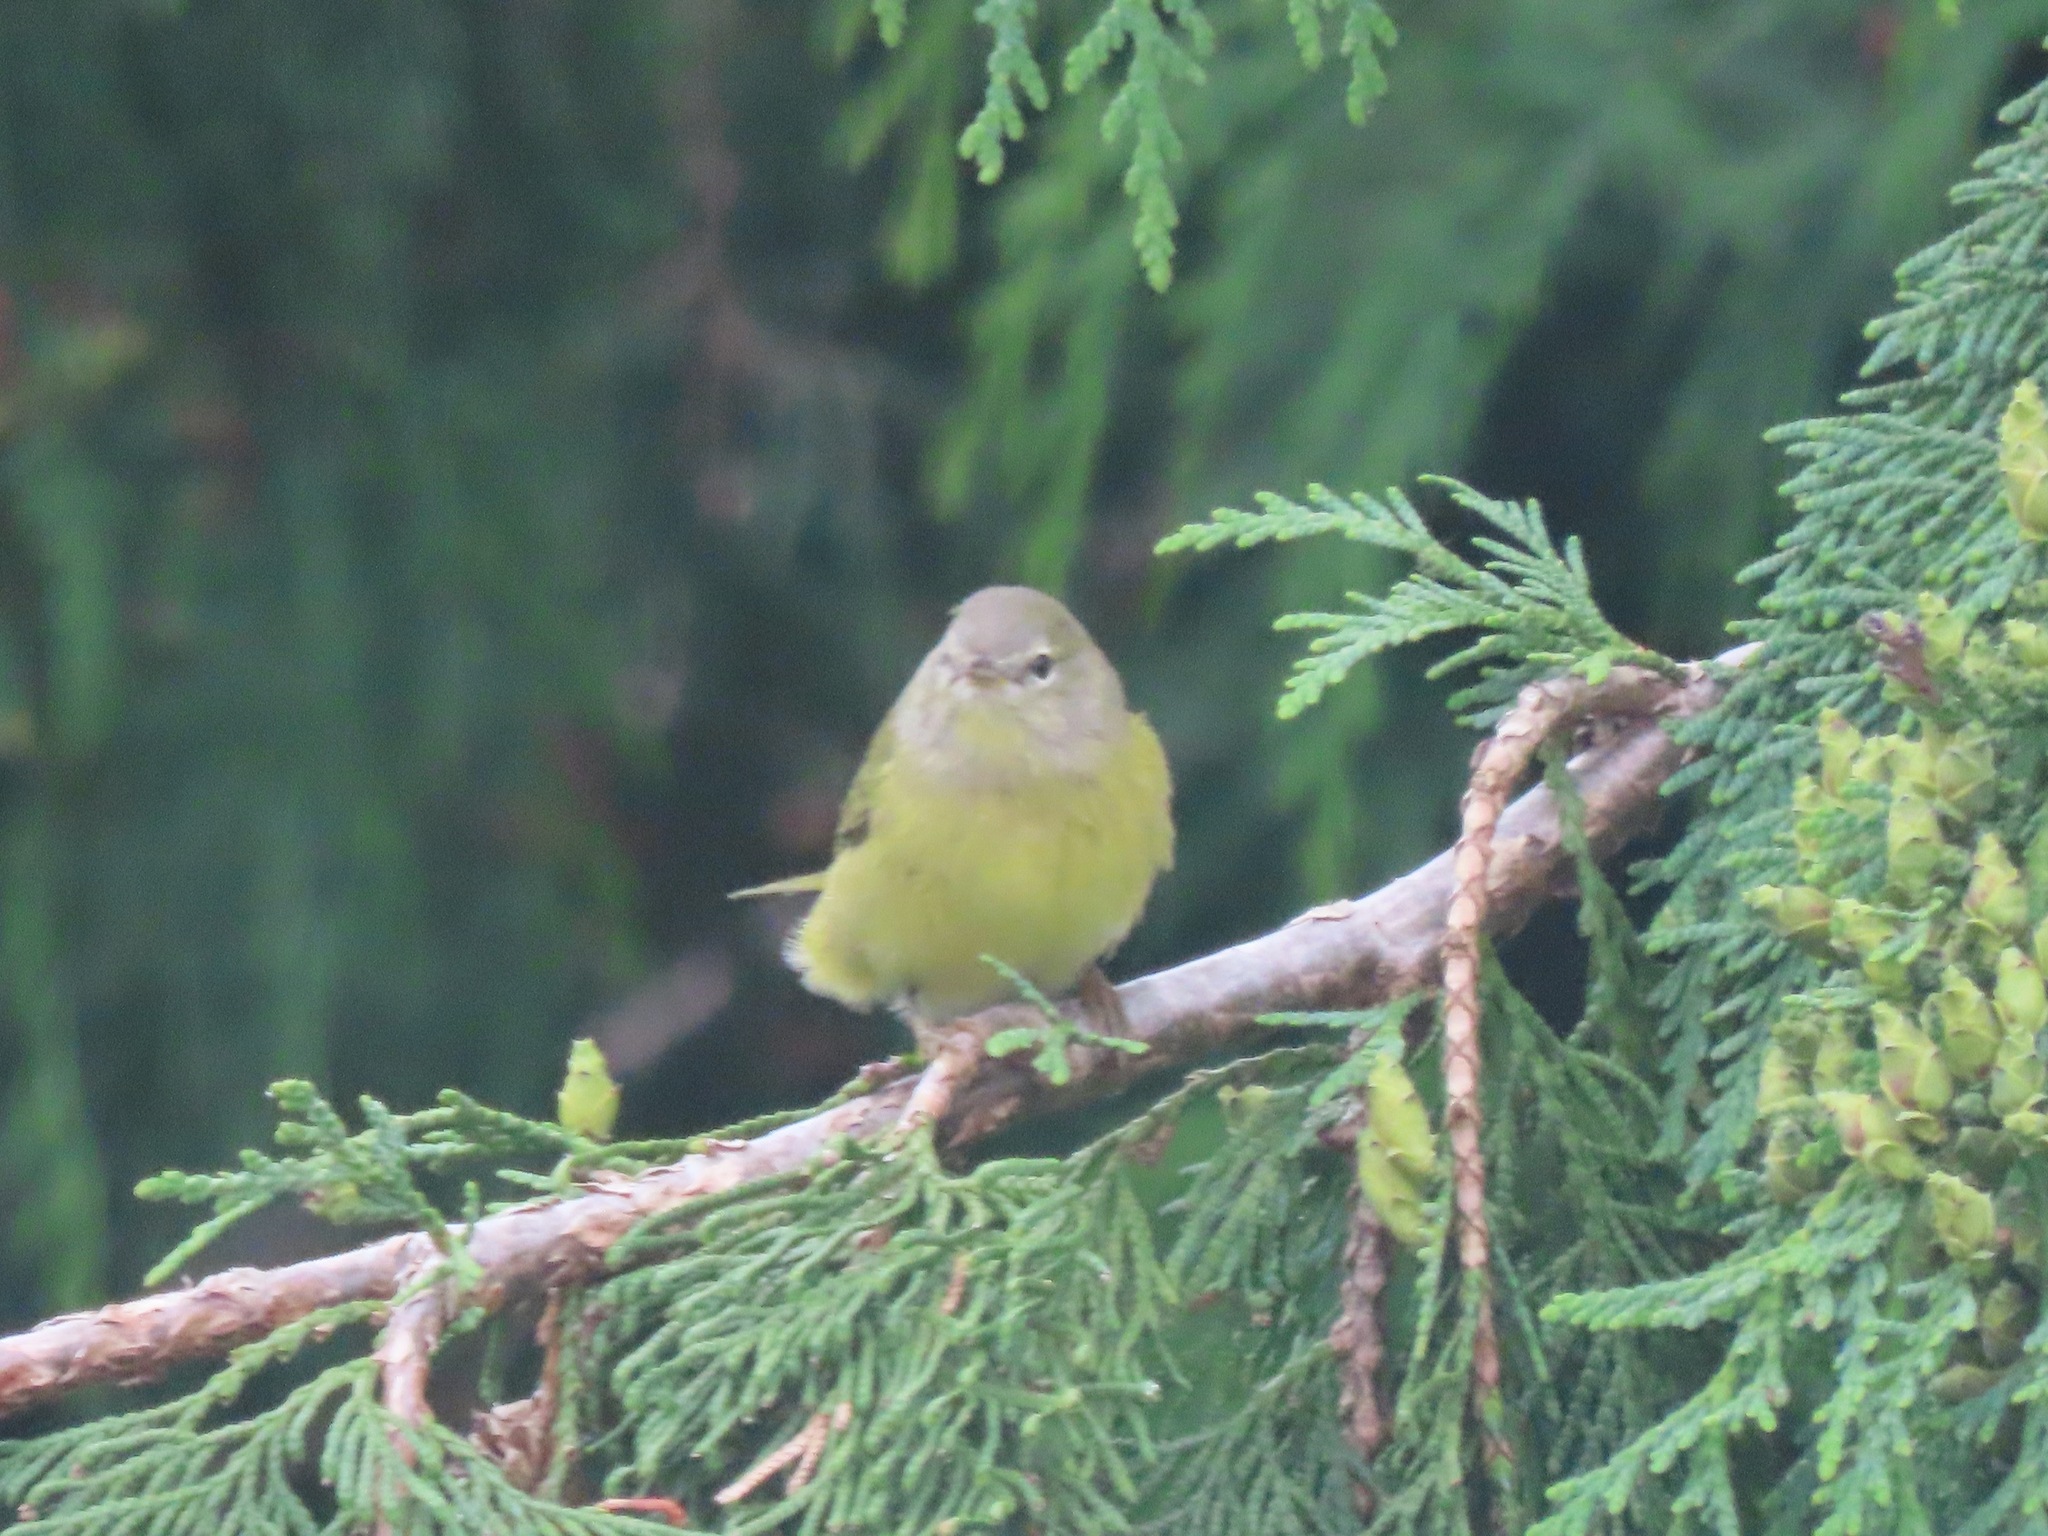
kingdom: Animalia
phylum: Chordata
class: Aves
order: Passeriformes
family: Parulidae
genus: Leiothlypis
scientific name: Leiothlypis celata
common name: Orange-crowned warbler
